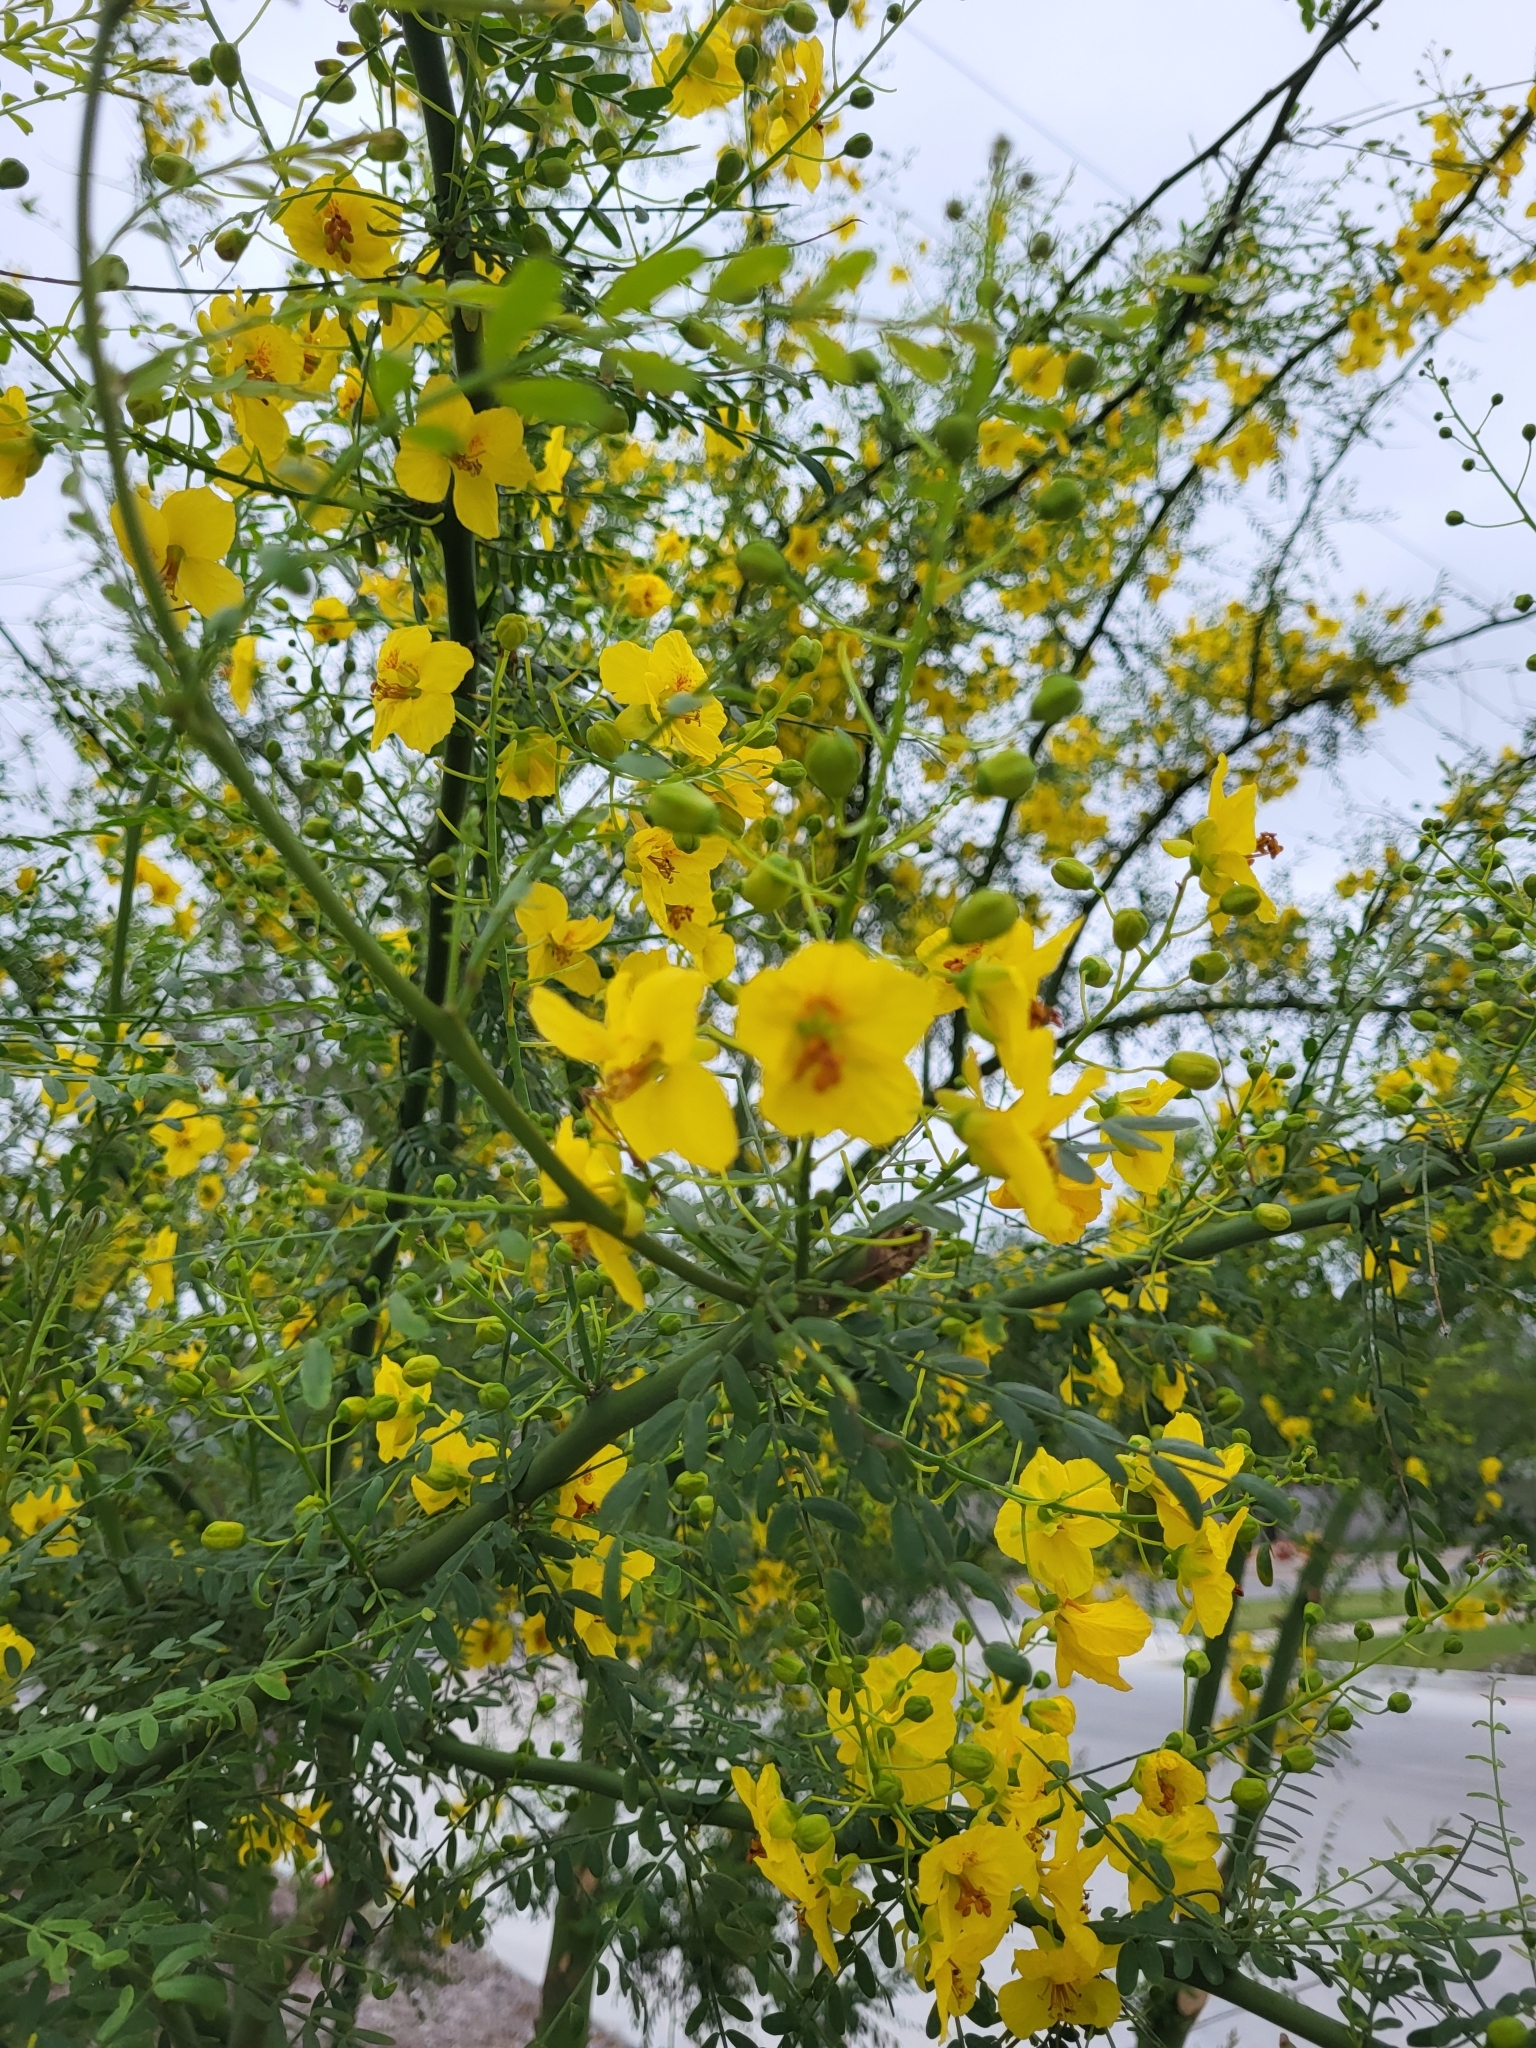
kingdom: Plantae
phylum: Tracheophyta
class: Magnoliopsida
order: Fabales
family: Fabaceae
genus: Parkinsonia
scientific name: Parkinsonia aculeata
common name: Jerusalem thorn
